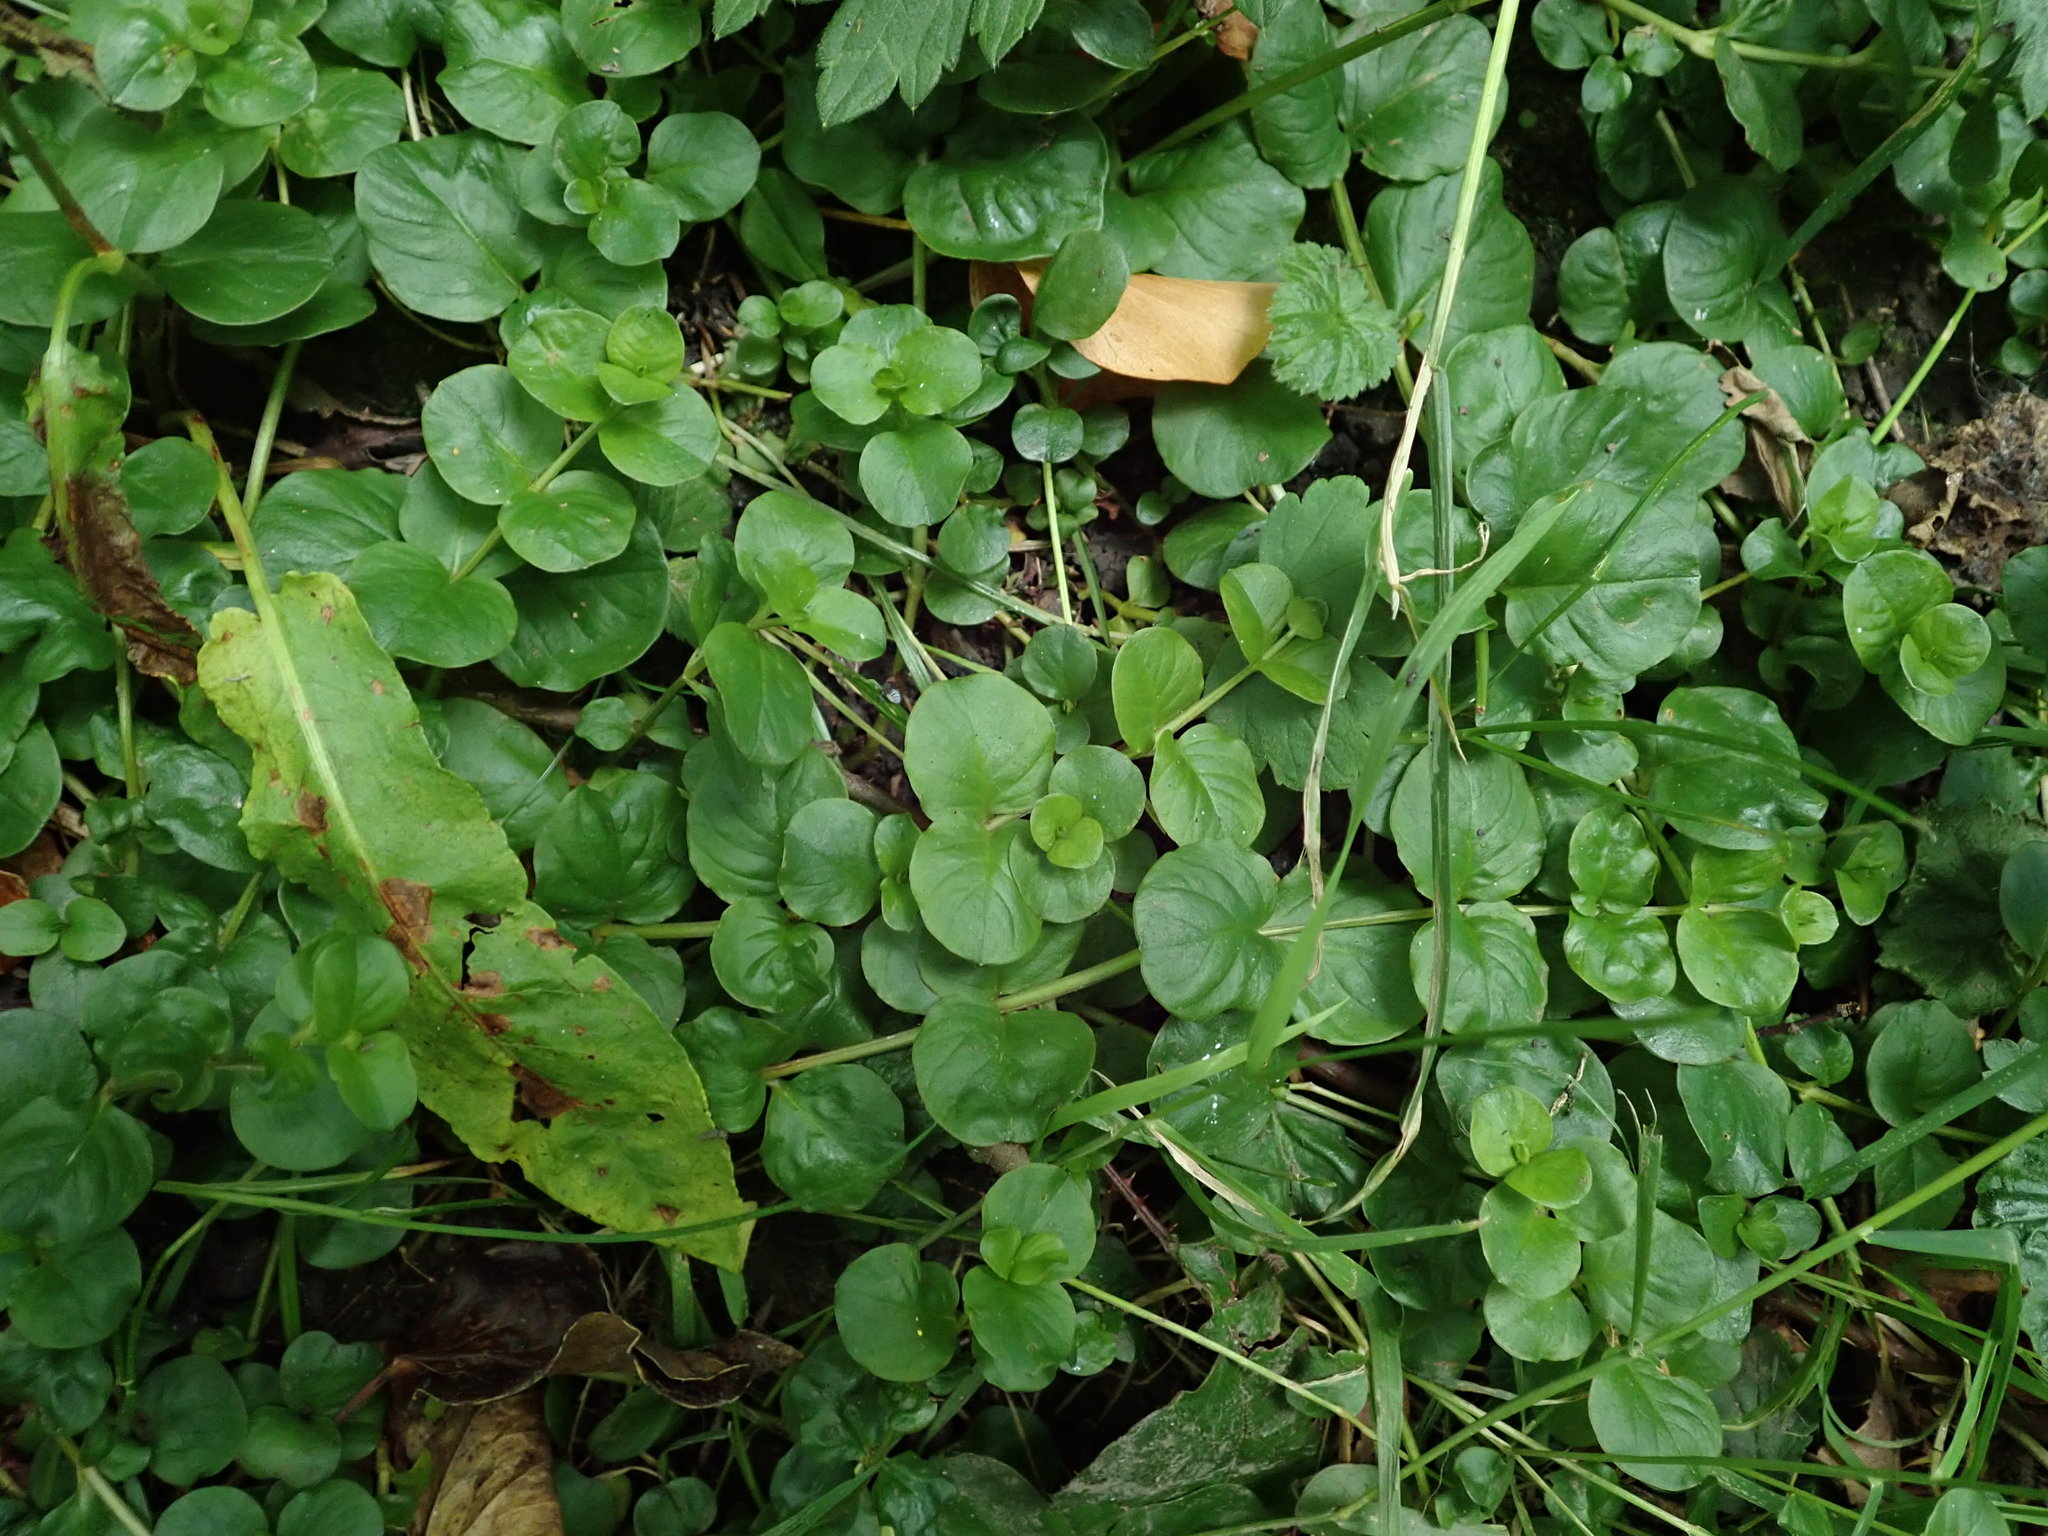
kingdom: Plantae
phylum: Tracheophyta
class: Magnoliopsida
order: Ericales
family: Primulaceae
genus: Lysimachia
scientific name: Lysimachia nummularia
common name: Moneywort
